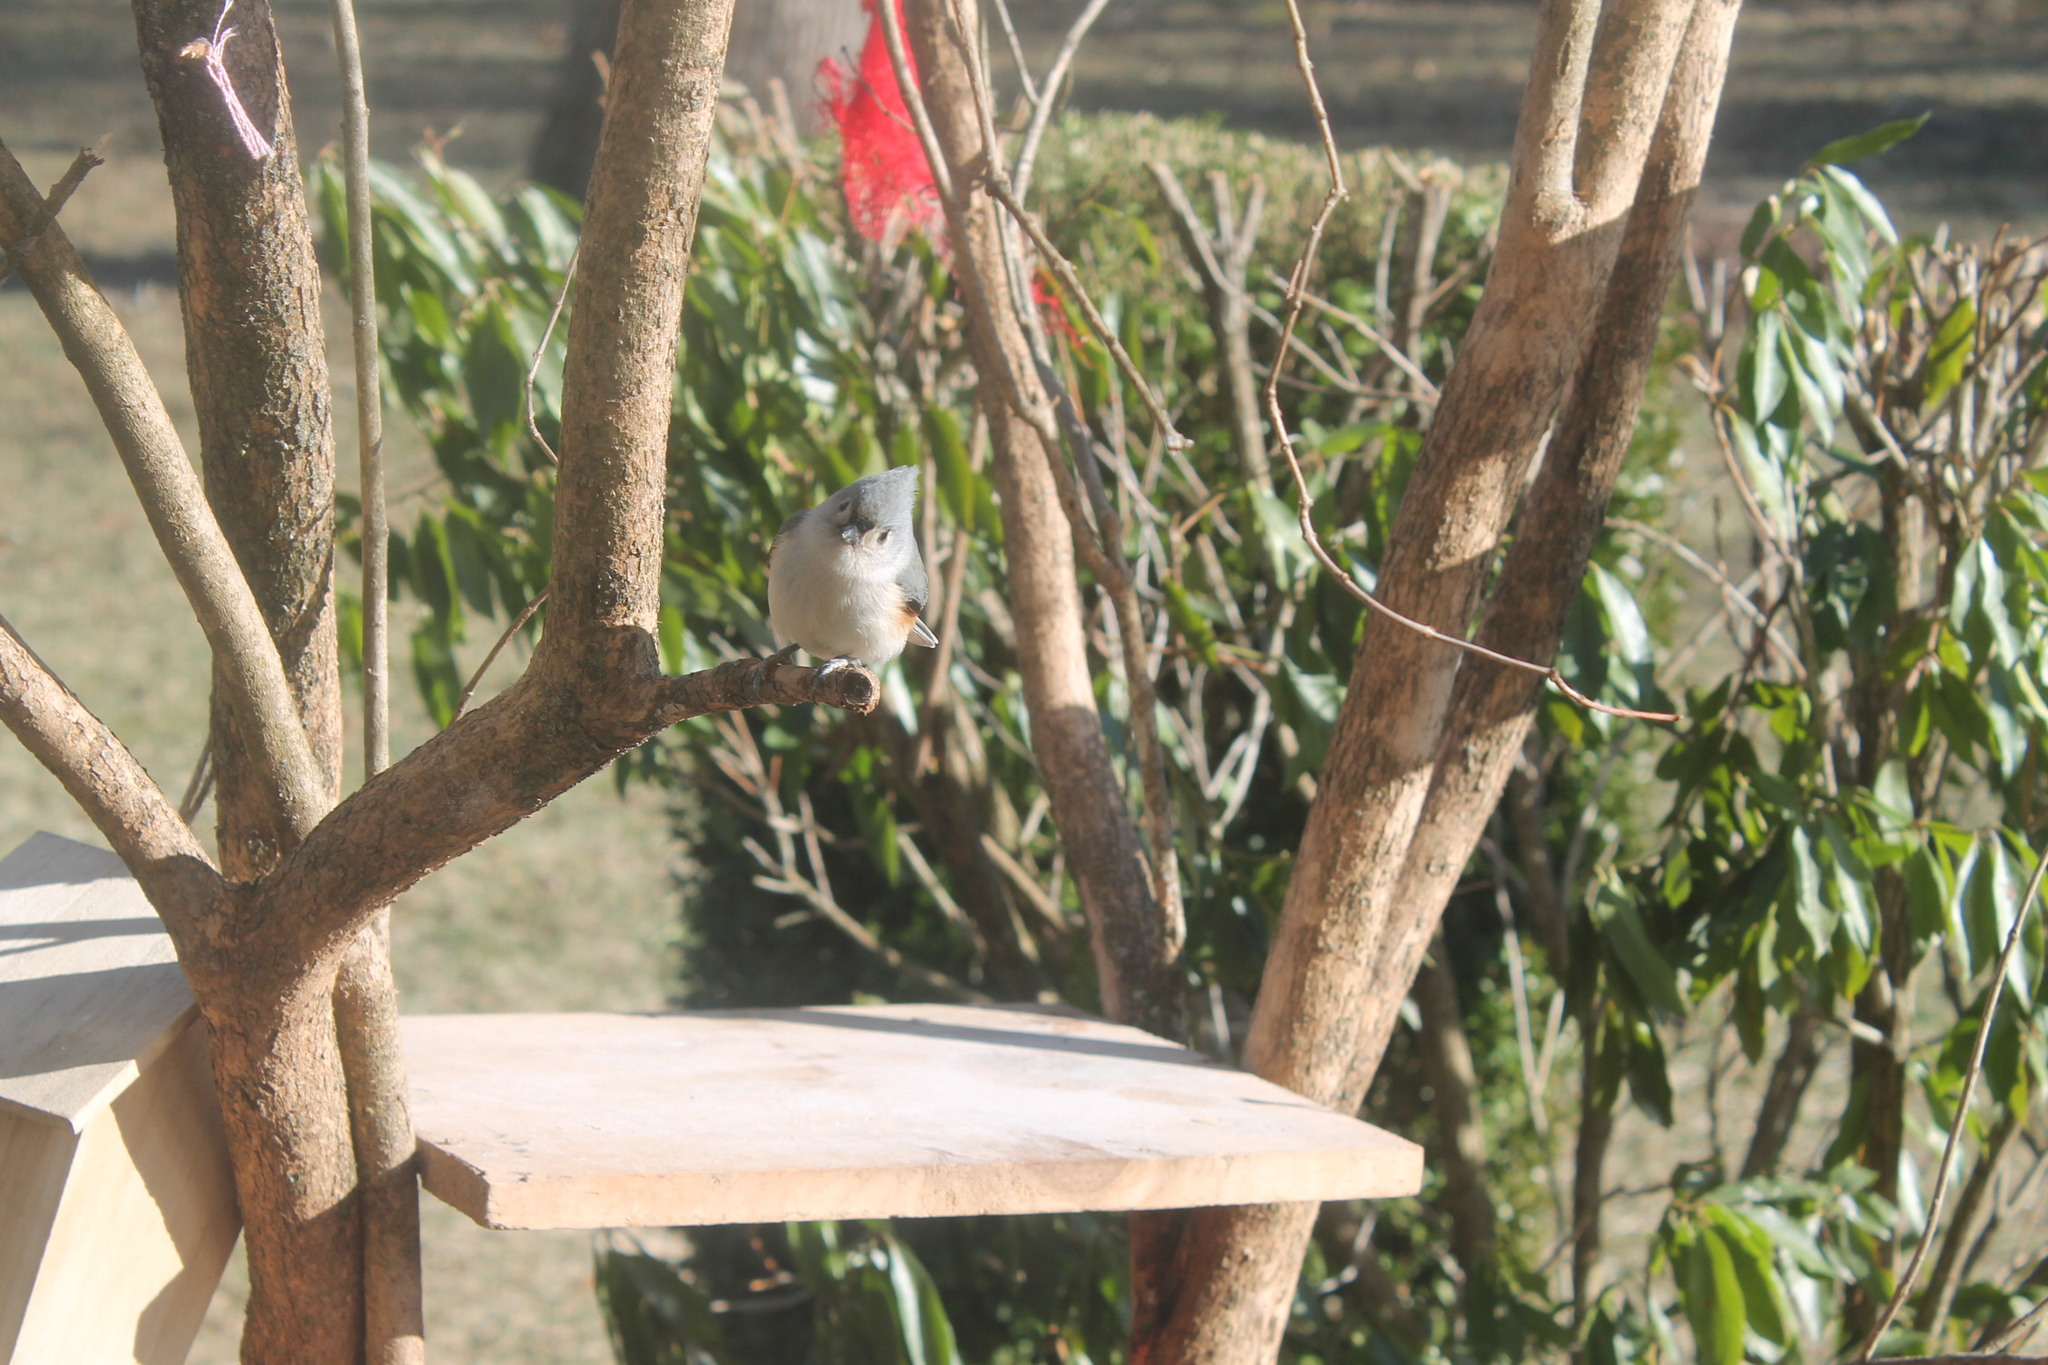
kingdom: Animalia
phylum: Chordata
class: Aves
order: Passeriformes
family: Paridae
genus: Baeolophus
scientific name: Baeolophus bicolor
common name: Tufted titmouse
